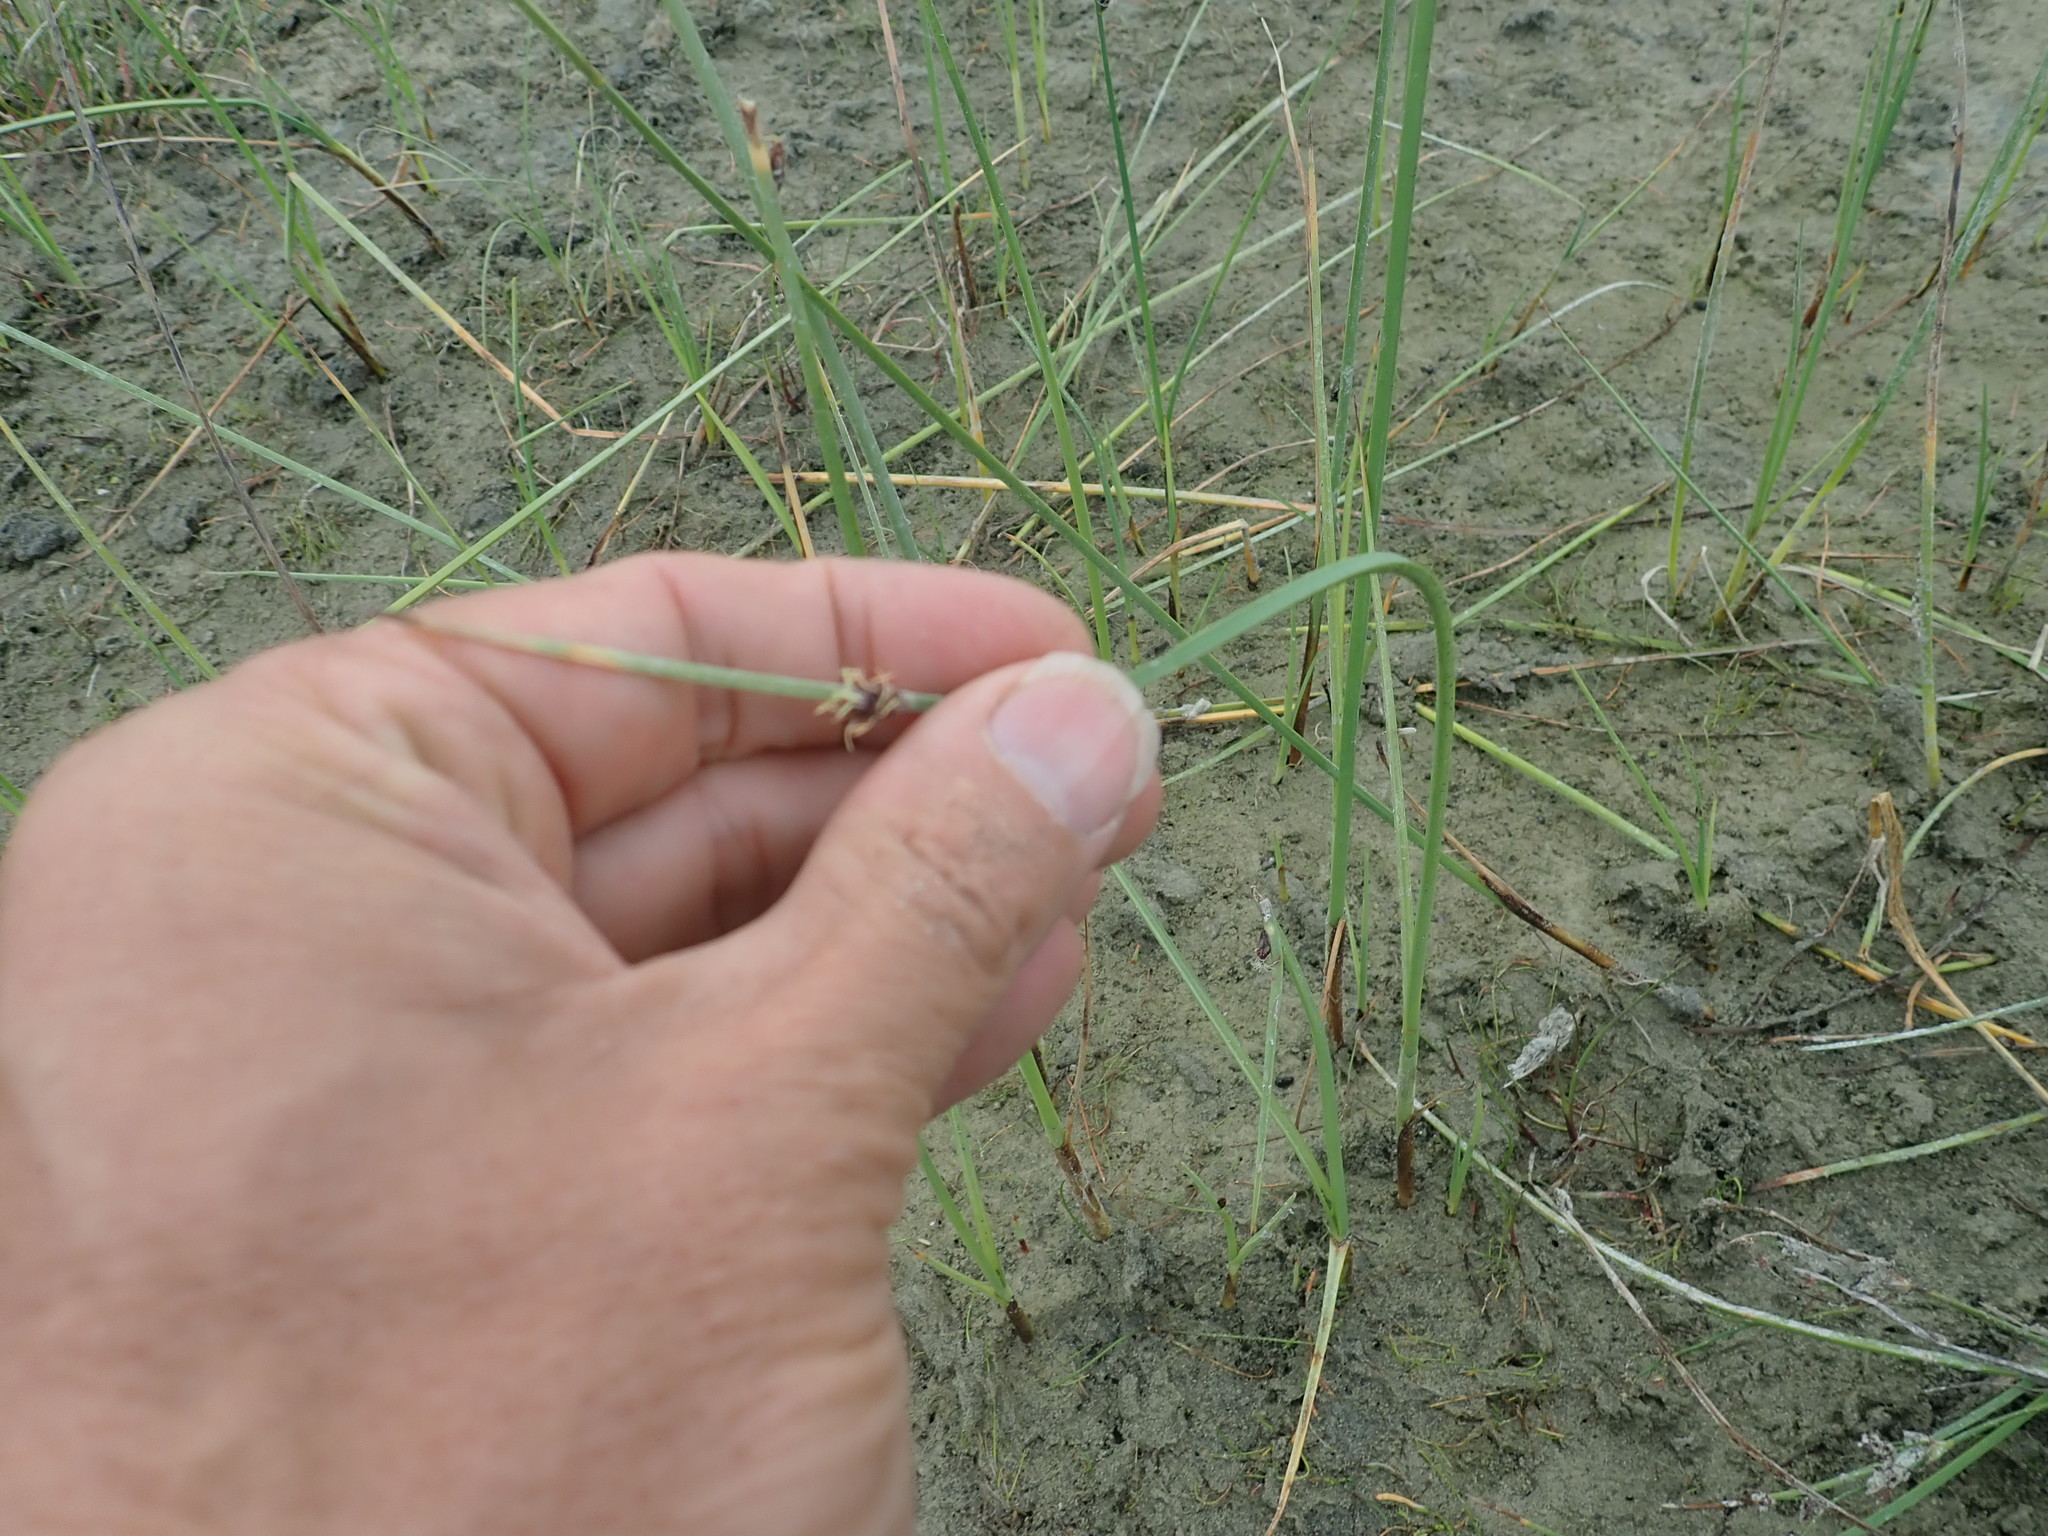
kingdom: Plantae
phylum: Tracheophyta
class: Liliopsida
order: Poales
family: Cyperaceae
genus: Schoenoplectus
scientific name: Schoenoplectus pungens
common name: Sharp club-rush
